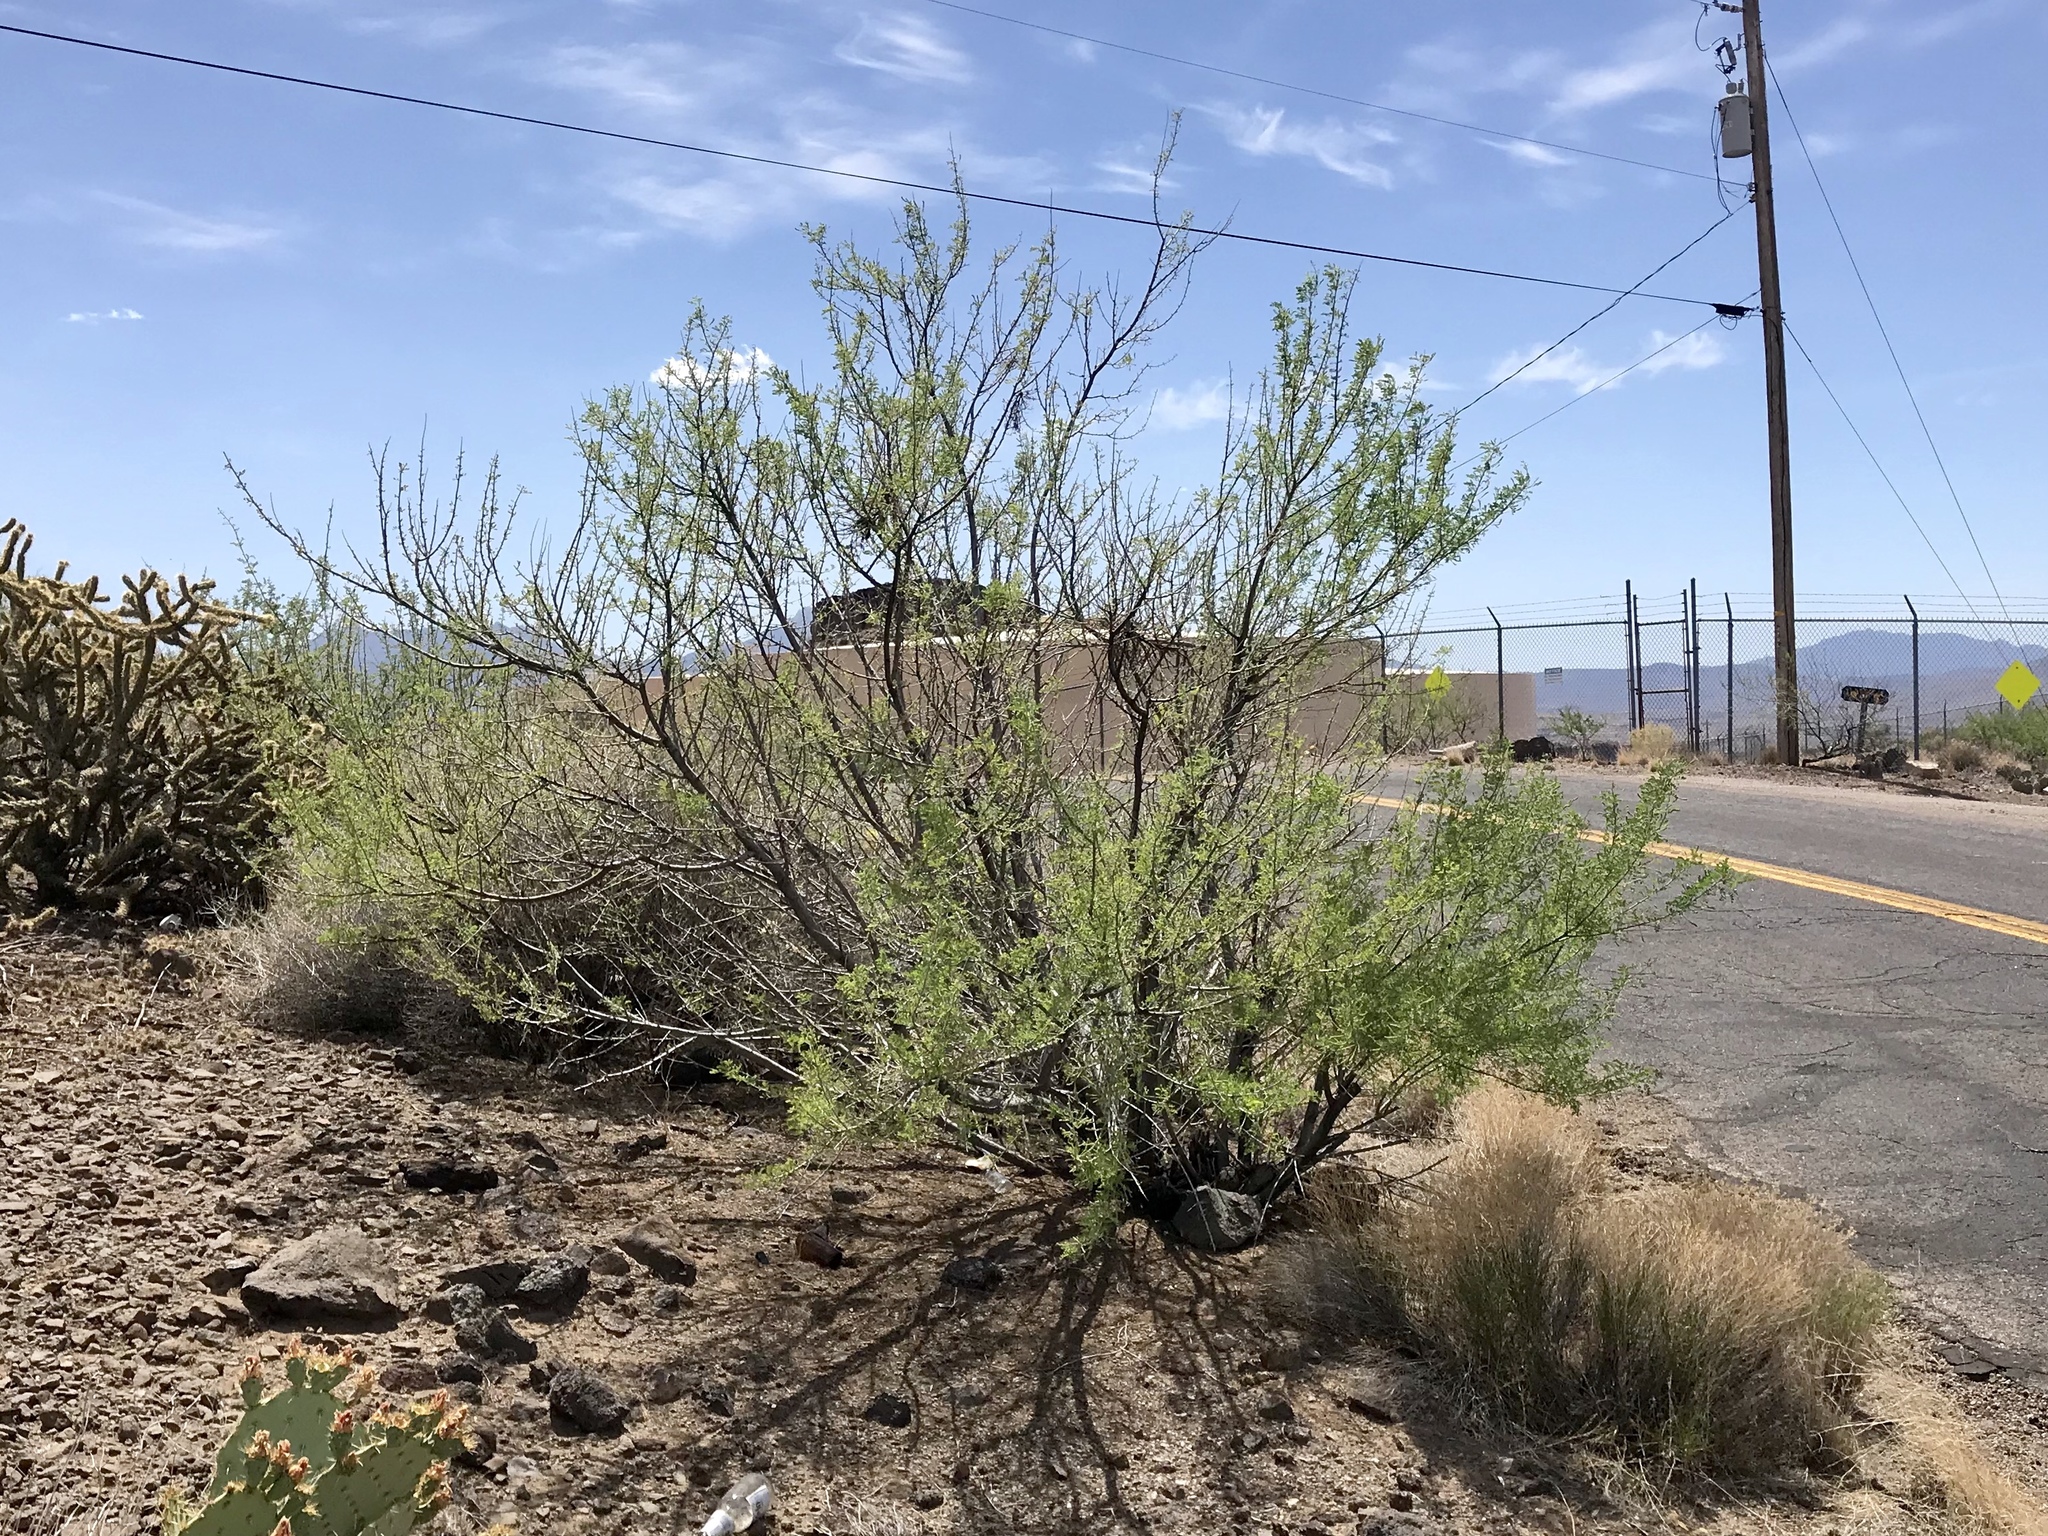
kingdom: Plantae
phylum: Tracheophyta
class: Magnoliopsida
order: Fabales
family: Fabaceae
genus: Senegalia
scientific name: Senegalia greggii
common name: Texas-mimosa
